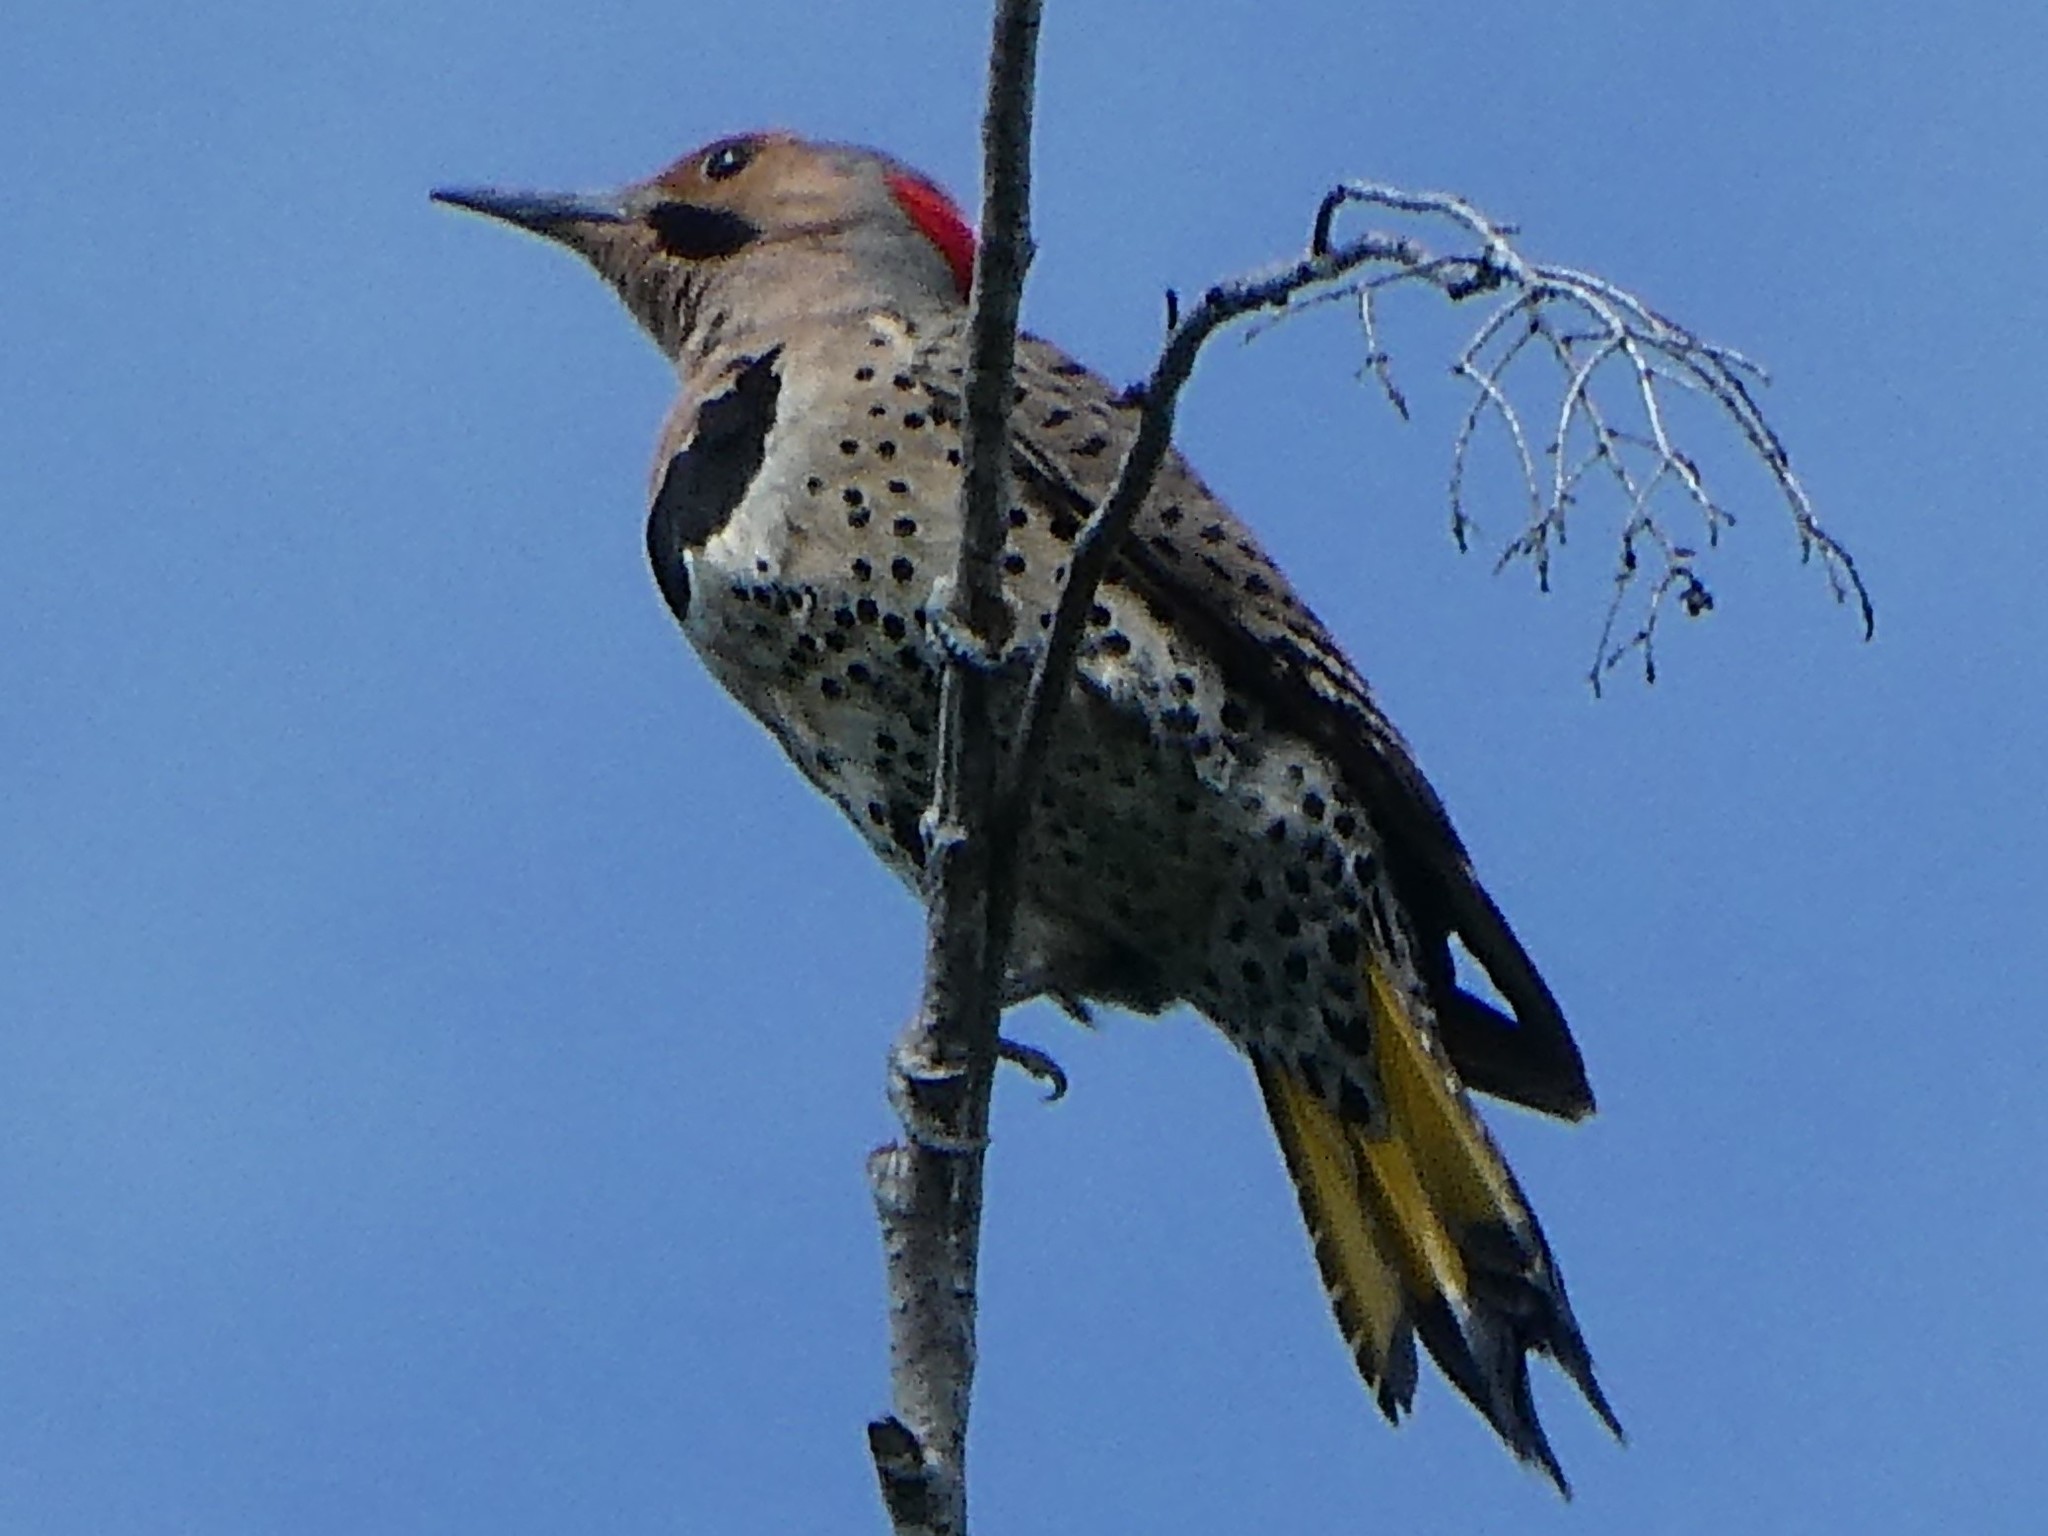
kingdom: Animalia
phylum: Chordata
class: Aves
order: Piciformes
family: Picidae
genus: Colaptes
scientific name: Colaptes auratus
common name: Northern flicker
